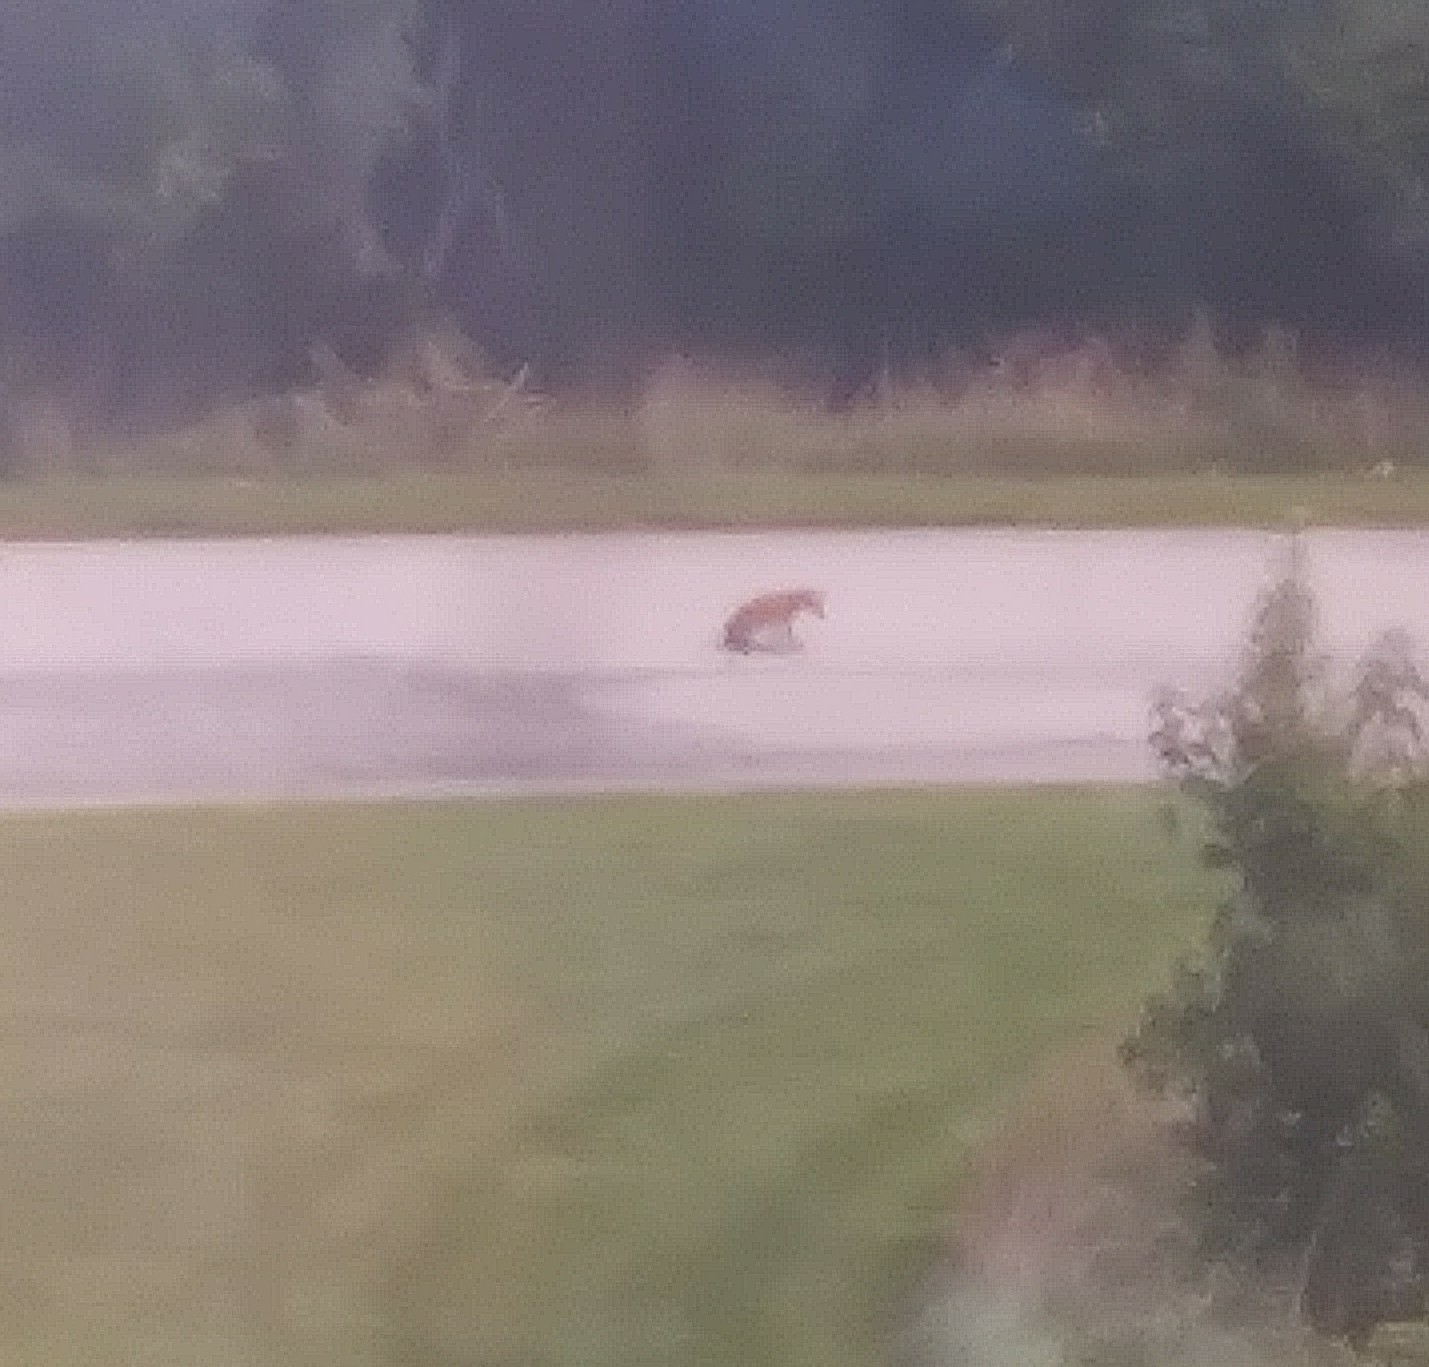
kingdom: Animalia
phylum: Chordata
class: Mammalia
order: Carnivora
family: Canidae
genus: Vulpes
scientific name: Vulpes vulpes
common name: Red fox
